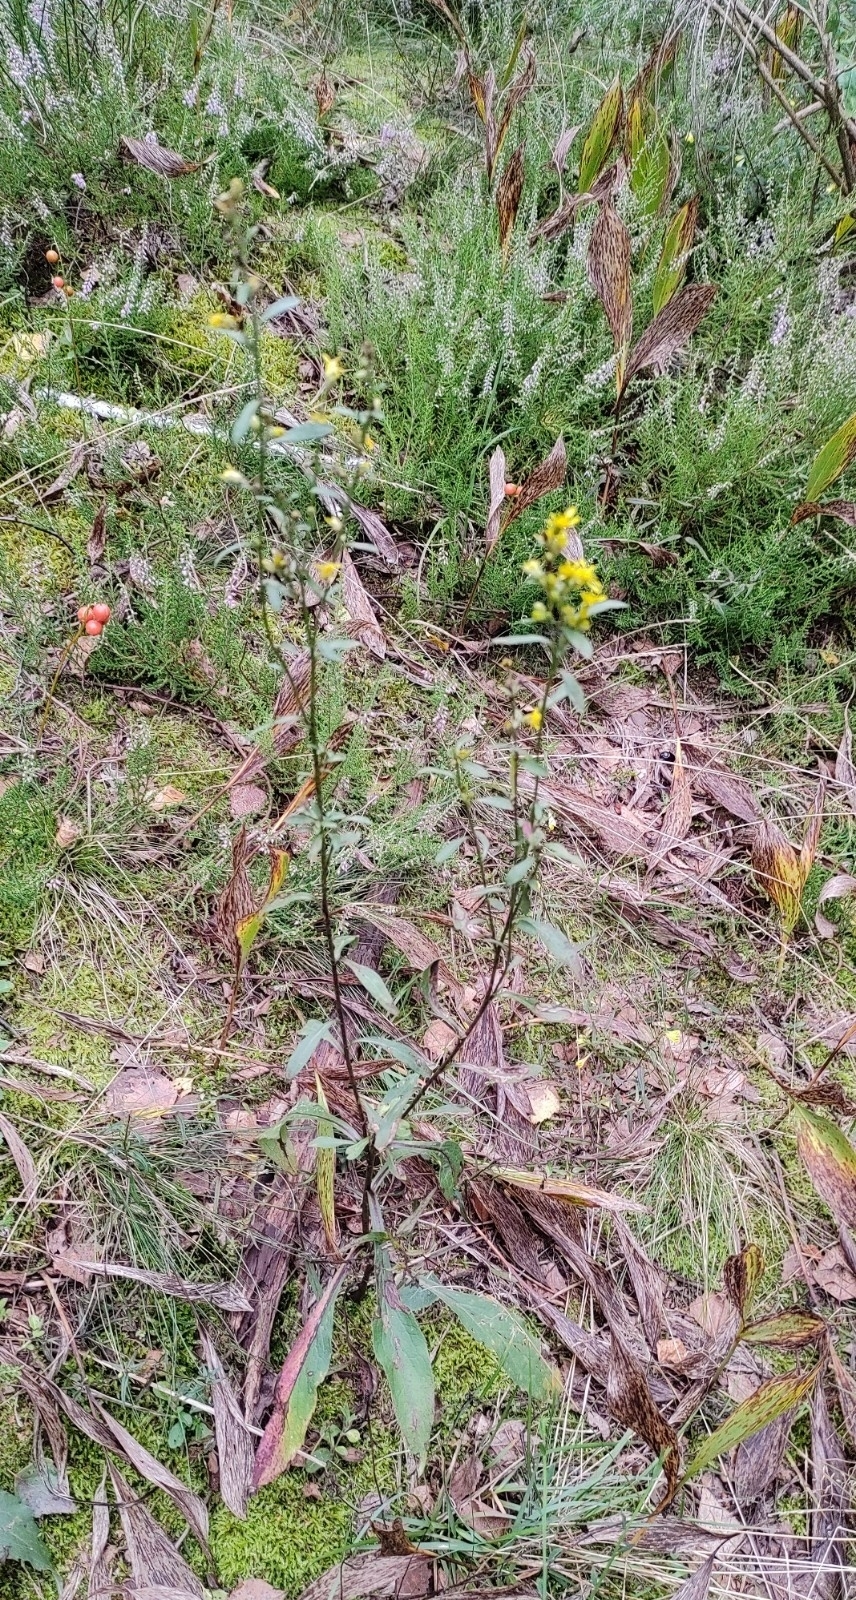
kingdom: Plantae
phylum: Tracheophyta
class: Magnoliopsida
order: Asterales
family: Asteraceae
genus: Solidago
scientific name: Solidago virgaurea
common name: Goldenrod
